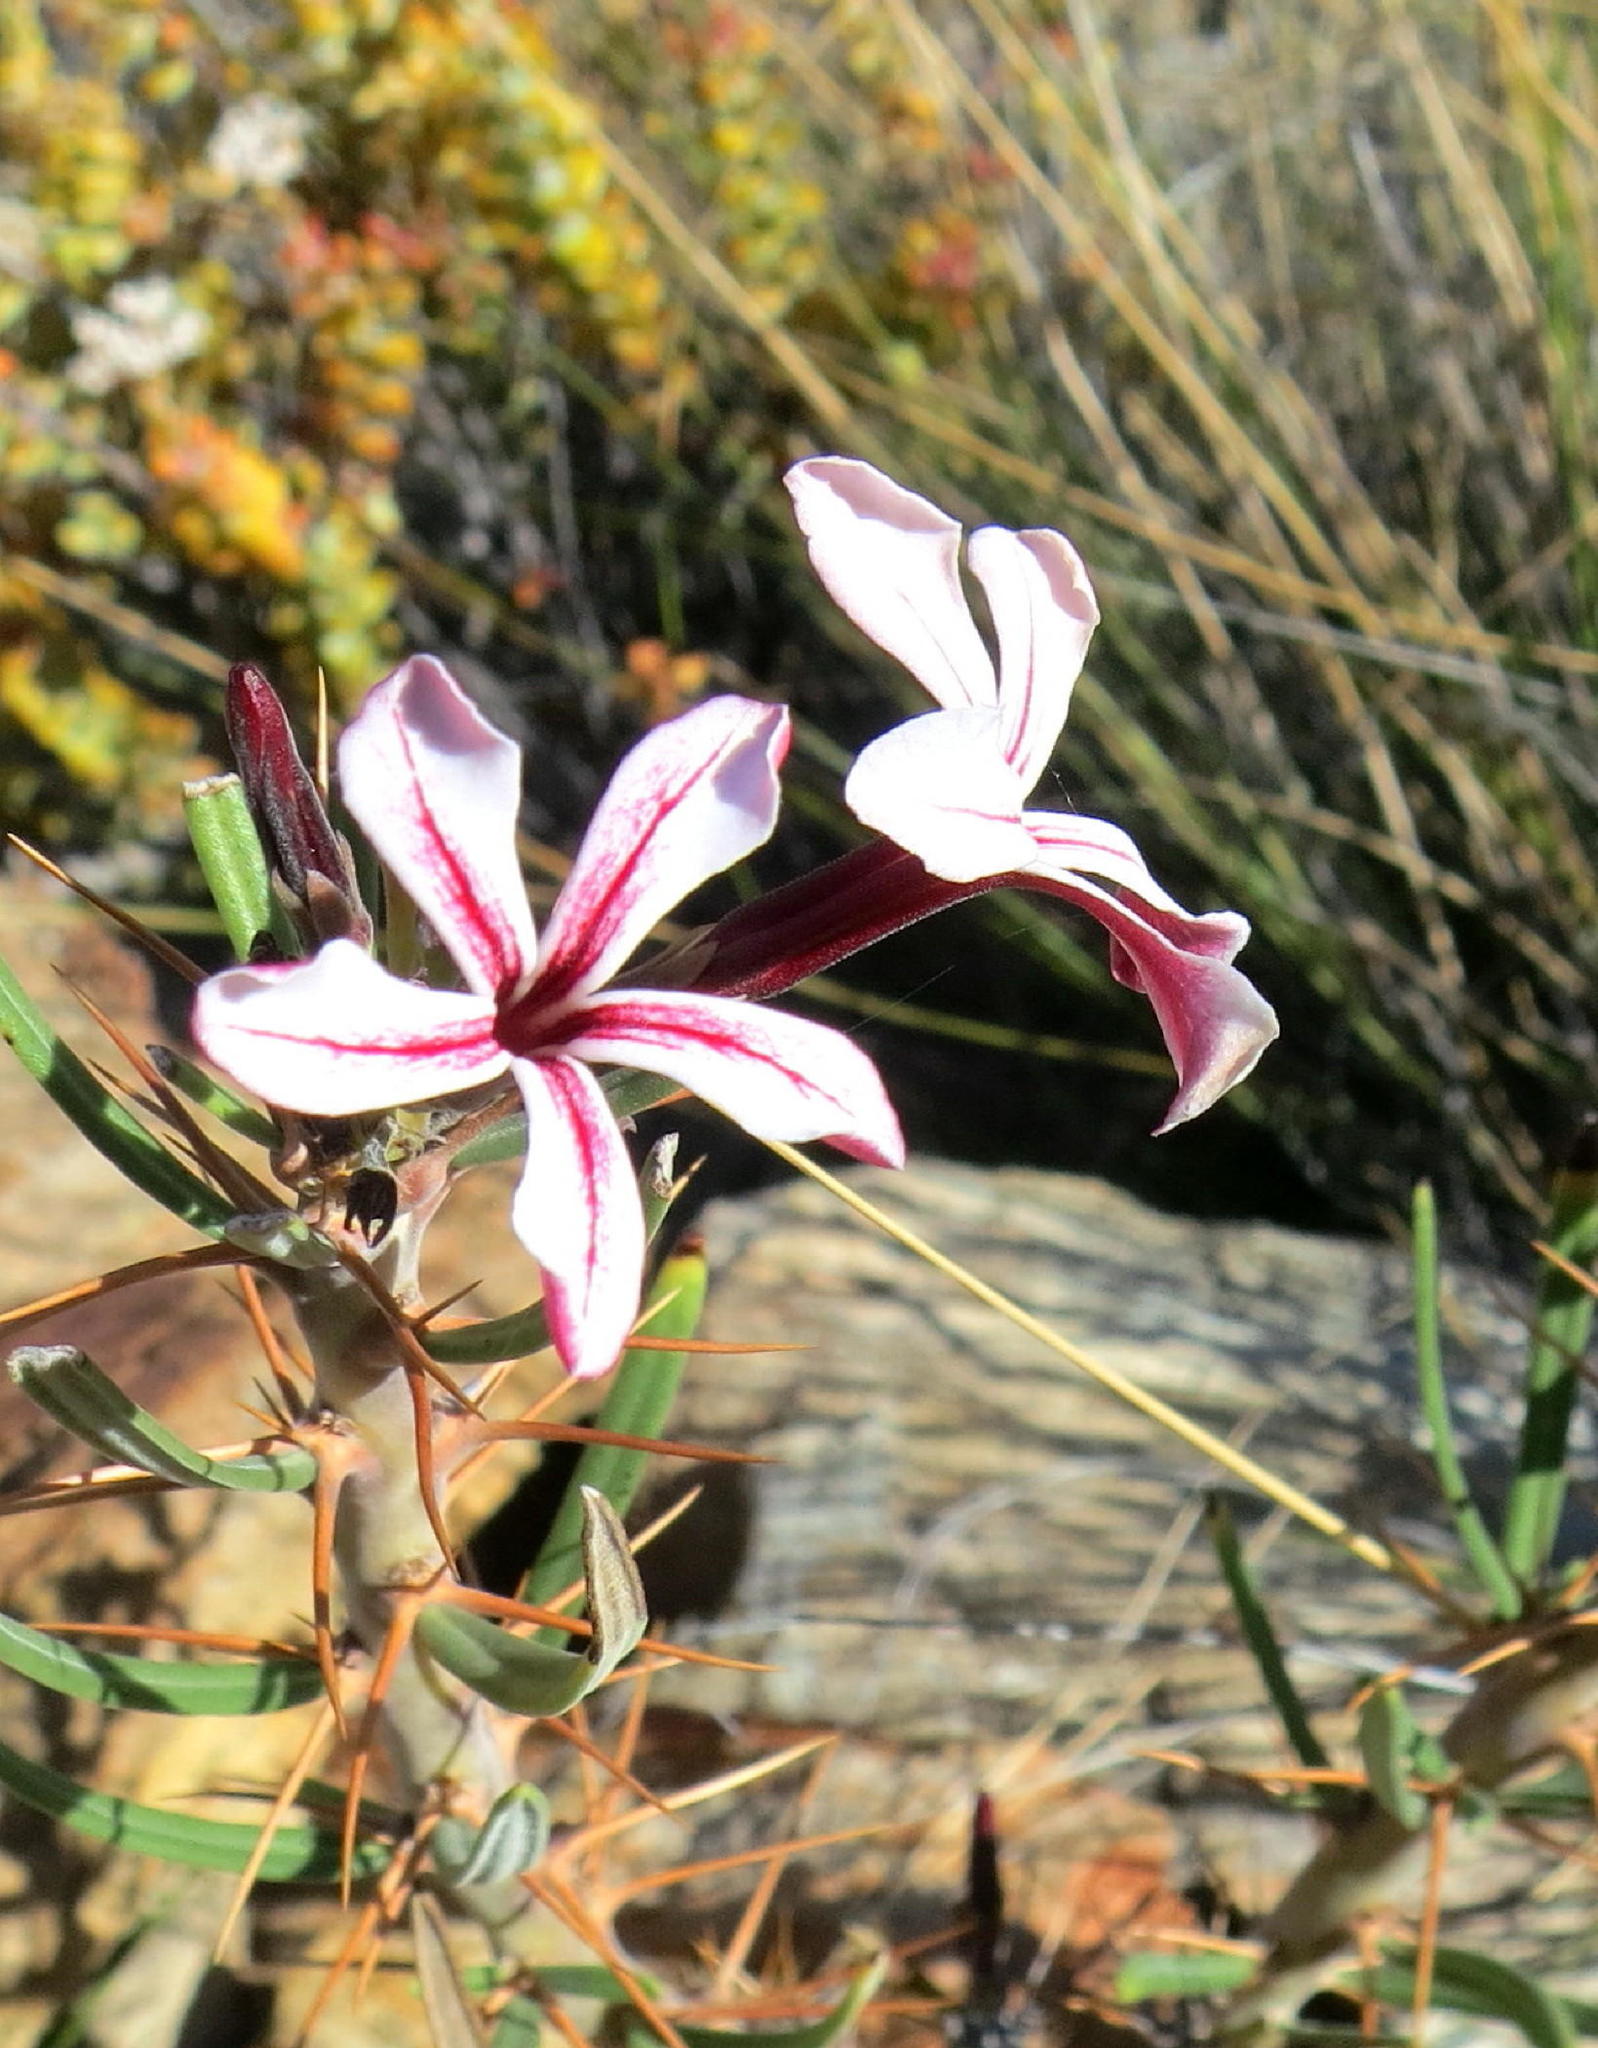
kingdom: Plantae
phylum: Tracheophyta
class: Magnoliopsida
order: Gentianales
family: Apocynaceae
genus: Pachypodium
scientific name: Pachypodium succulentum
